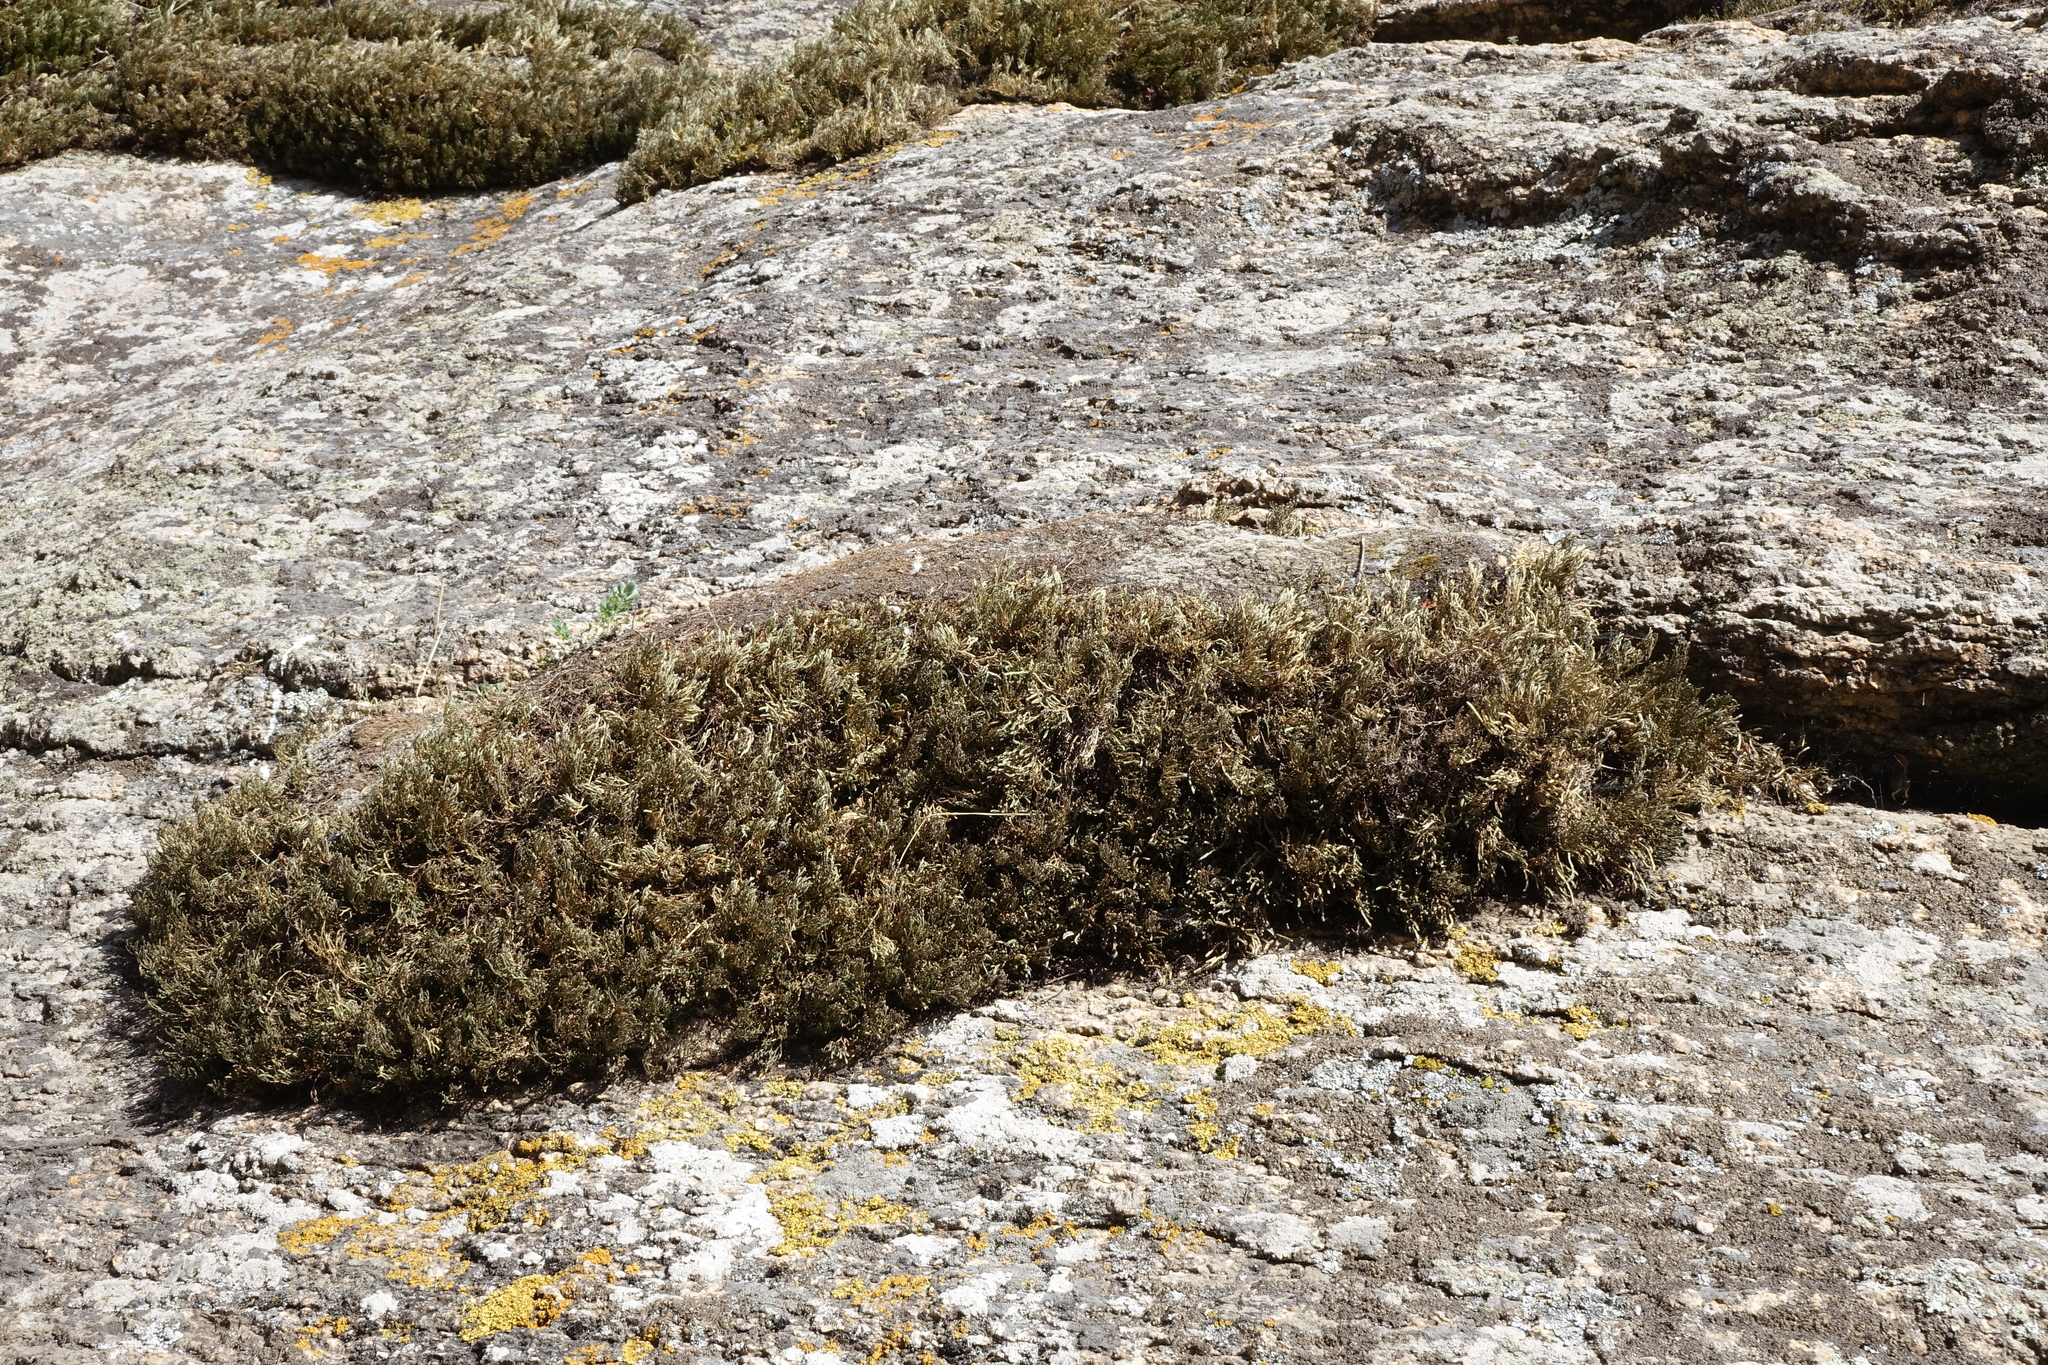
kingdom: Plantae
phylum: Tracheophyta
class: Lycopodiopsida
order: Selaginellales
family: Selaginellaceae
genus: Selaginella
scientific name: Selaginella sanguinolenta
